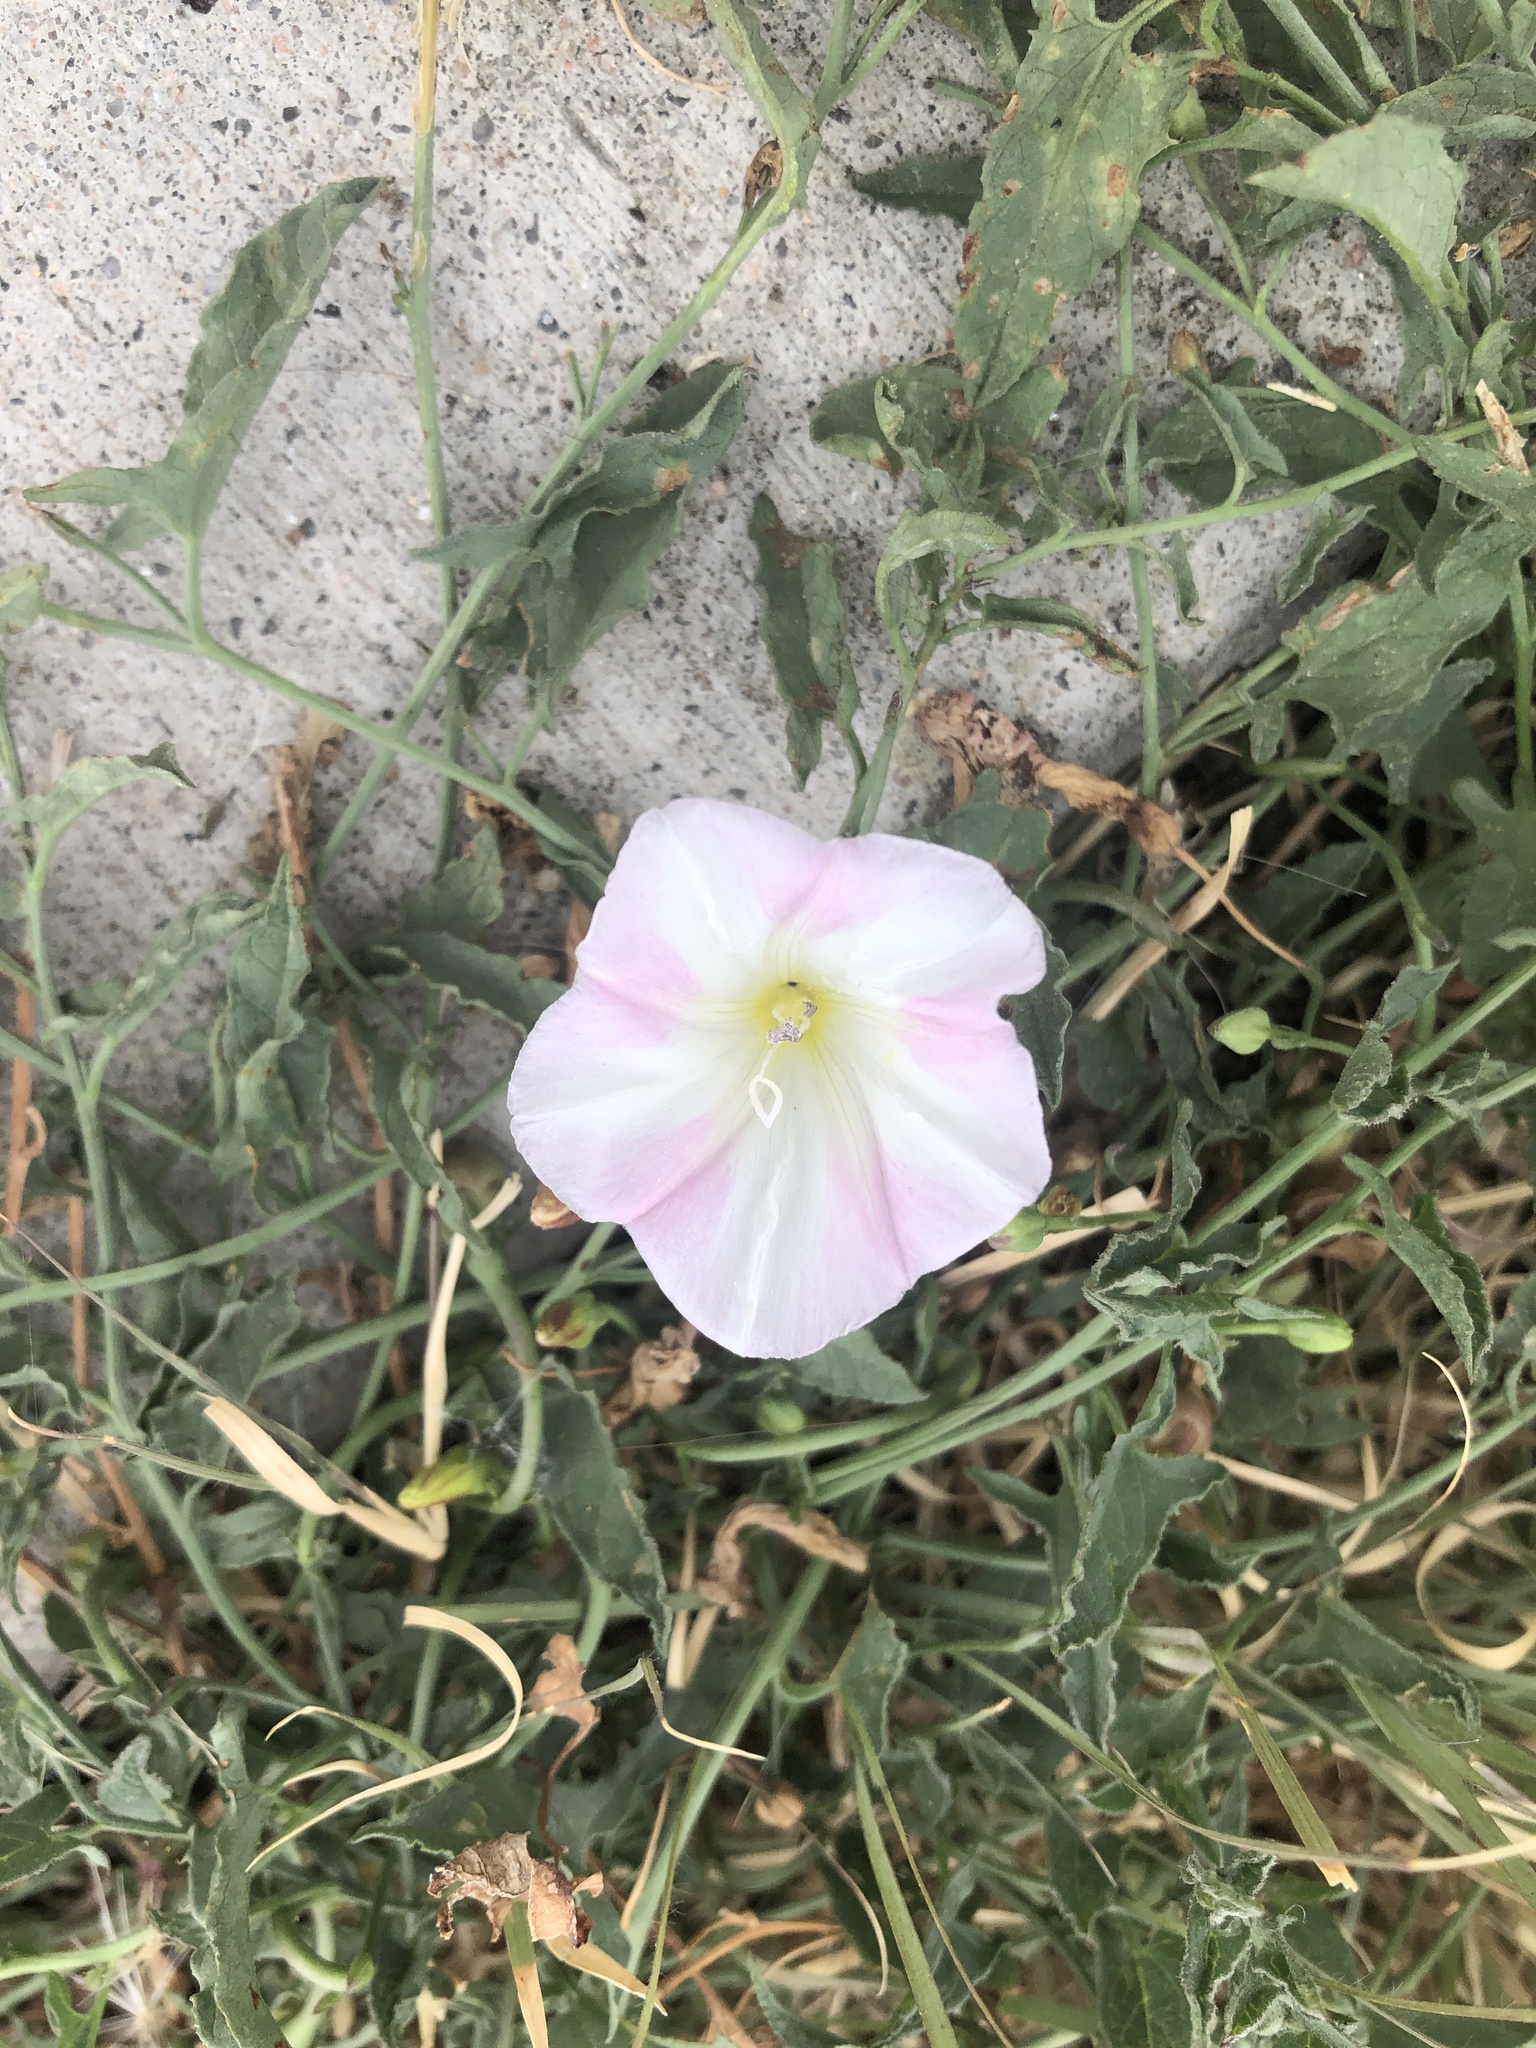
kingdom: Plantae
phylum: Tracheophyta
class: Magnoliopsida
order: Solanales
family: Convolvulaceae
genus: Convolvulus
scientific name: Convolvulus arvensis
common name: Field bindweed
